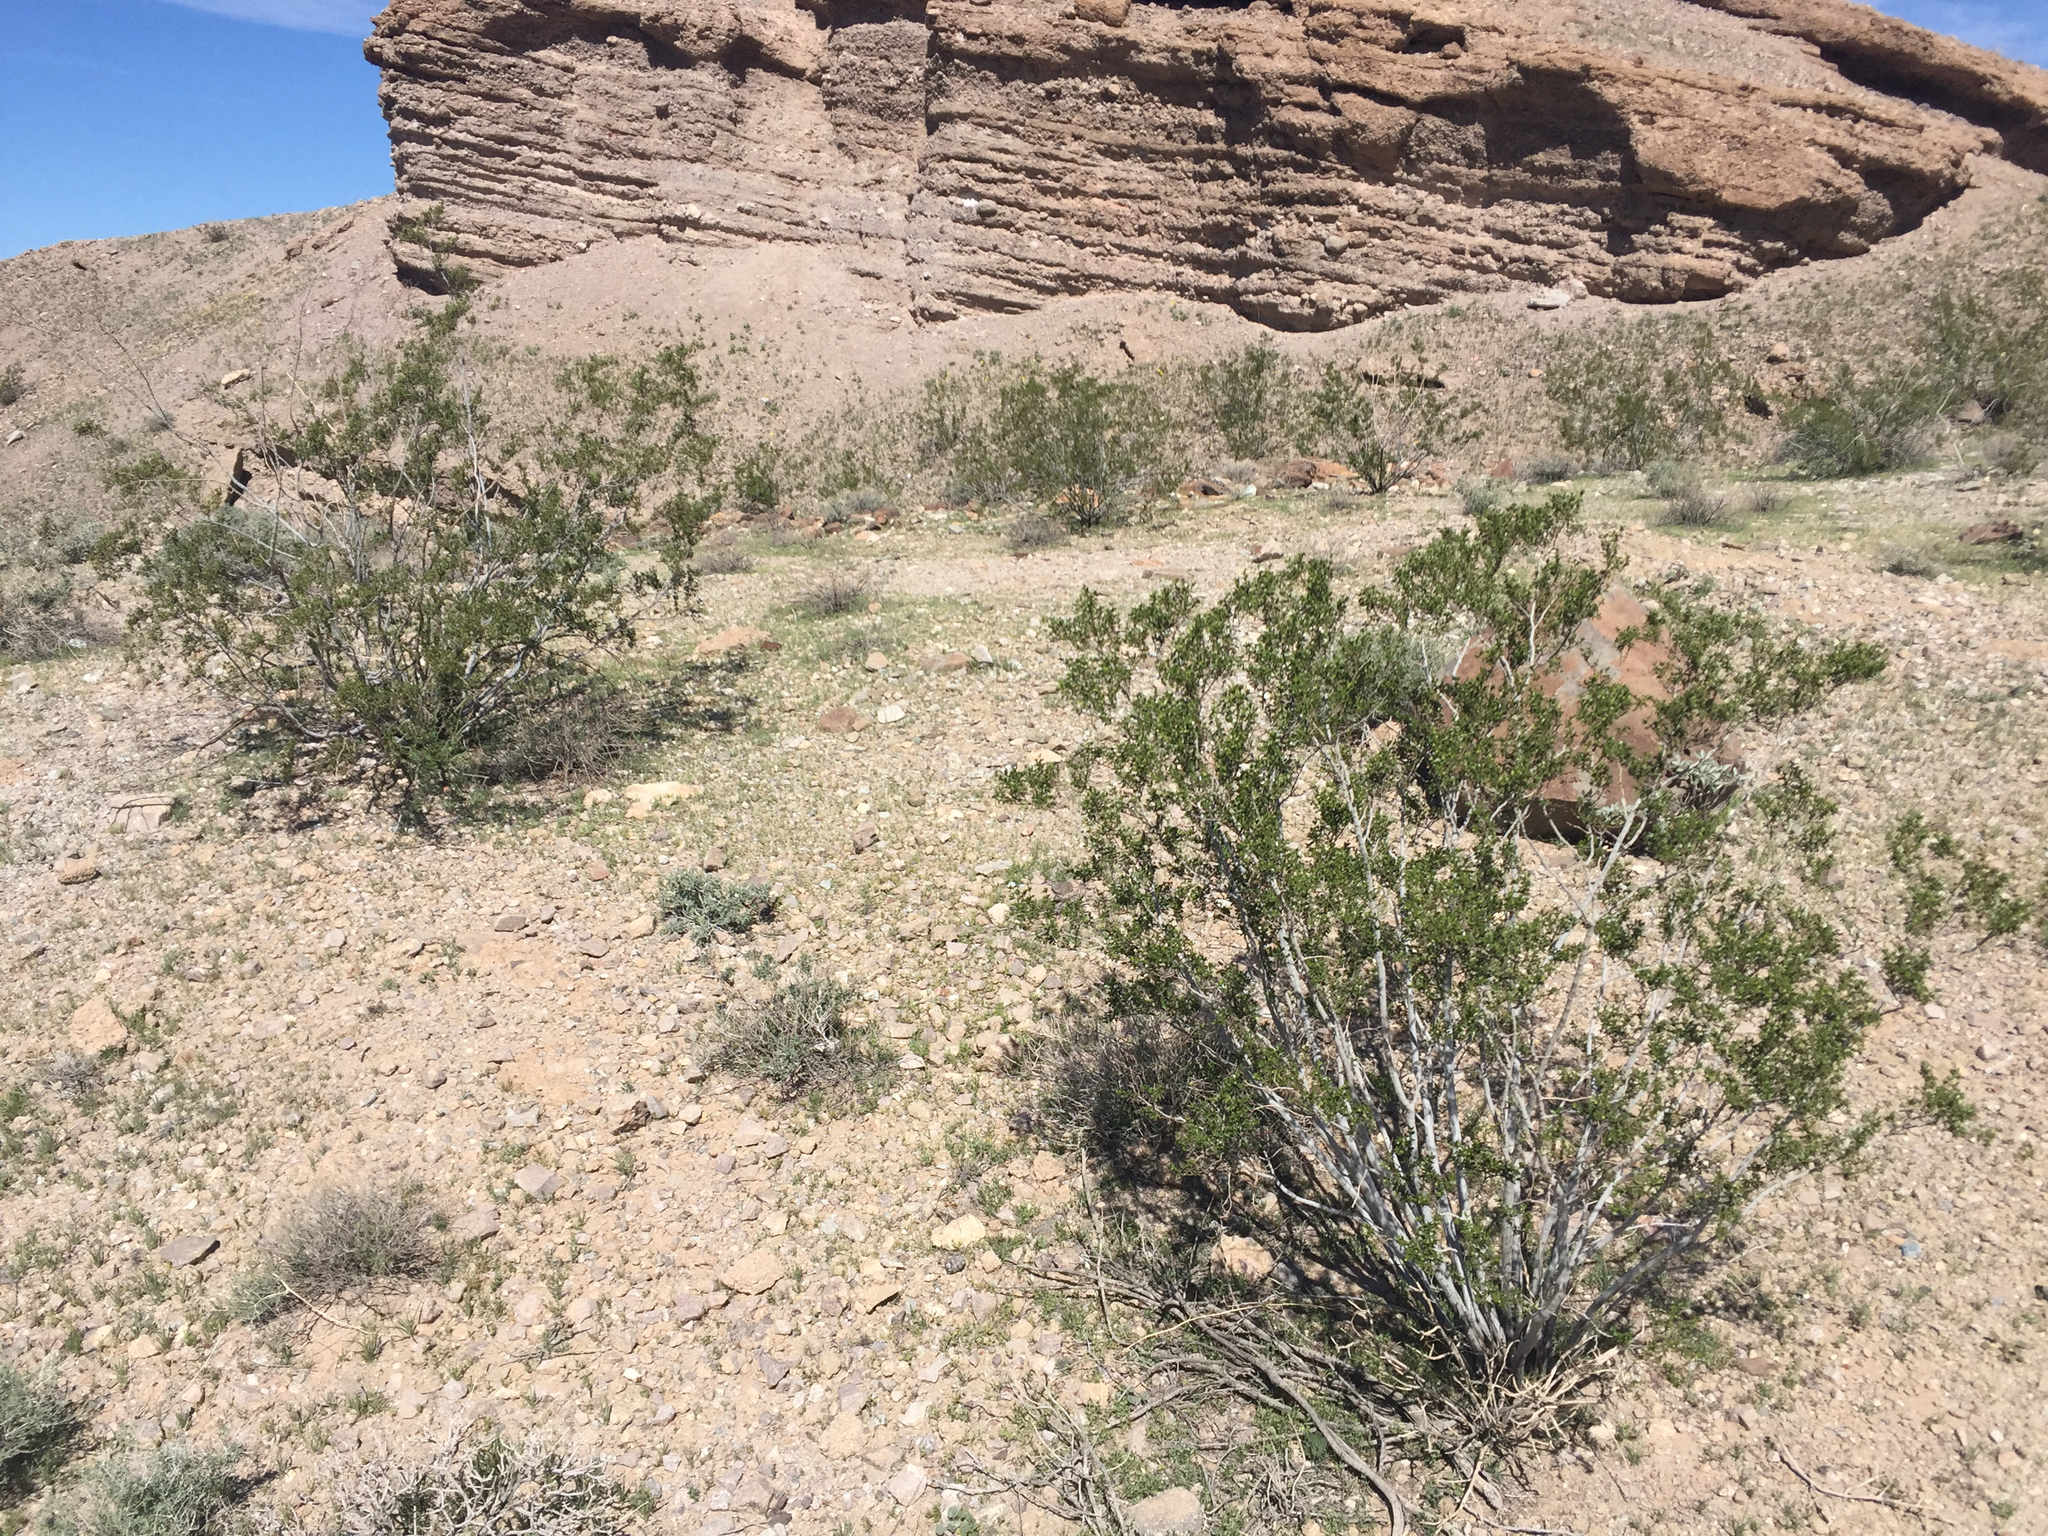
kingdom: Plantae
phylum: Tracheophyta
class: Magnoliopsida
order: Zygophyllales
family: Zygophyllaceae
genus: Larrea
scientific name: Larrea tridentata
